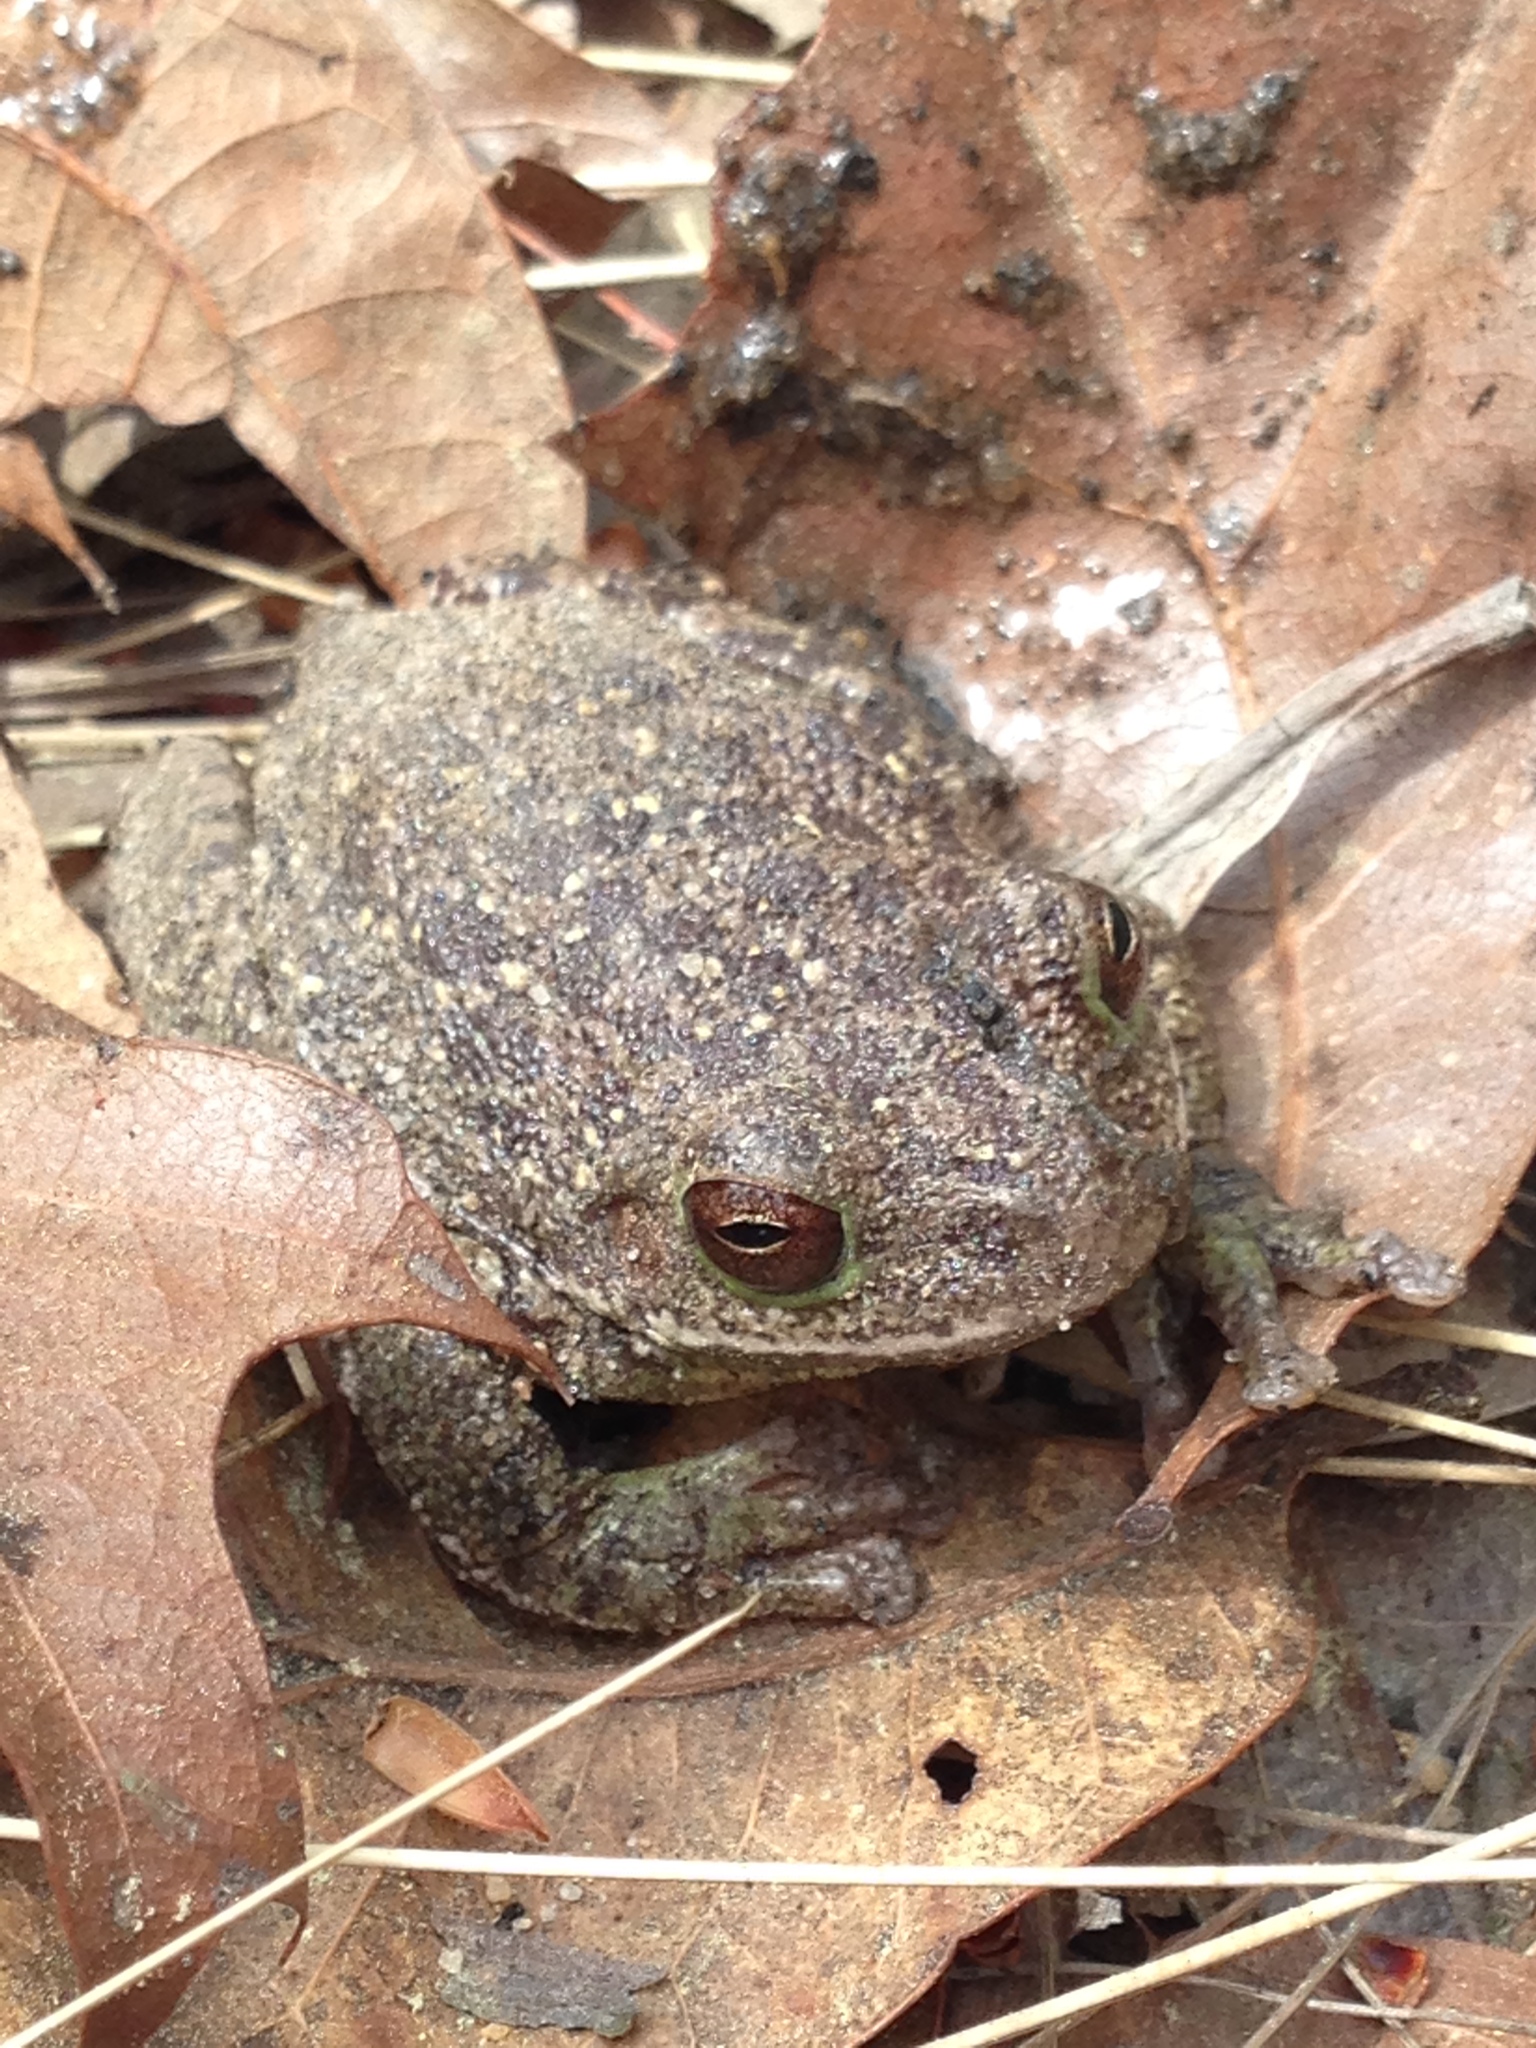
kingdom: Animalia
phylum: Chordata
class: Amphibia
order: Anura
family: Hylidae
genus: Dryophytes
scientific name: Dryophytes gratiosus
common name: Barking treefrog
